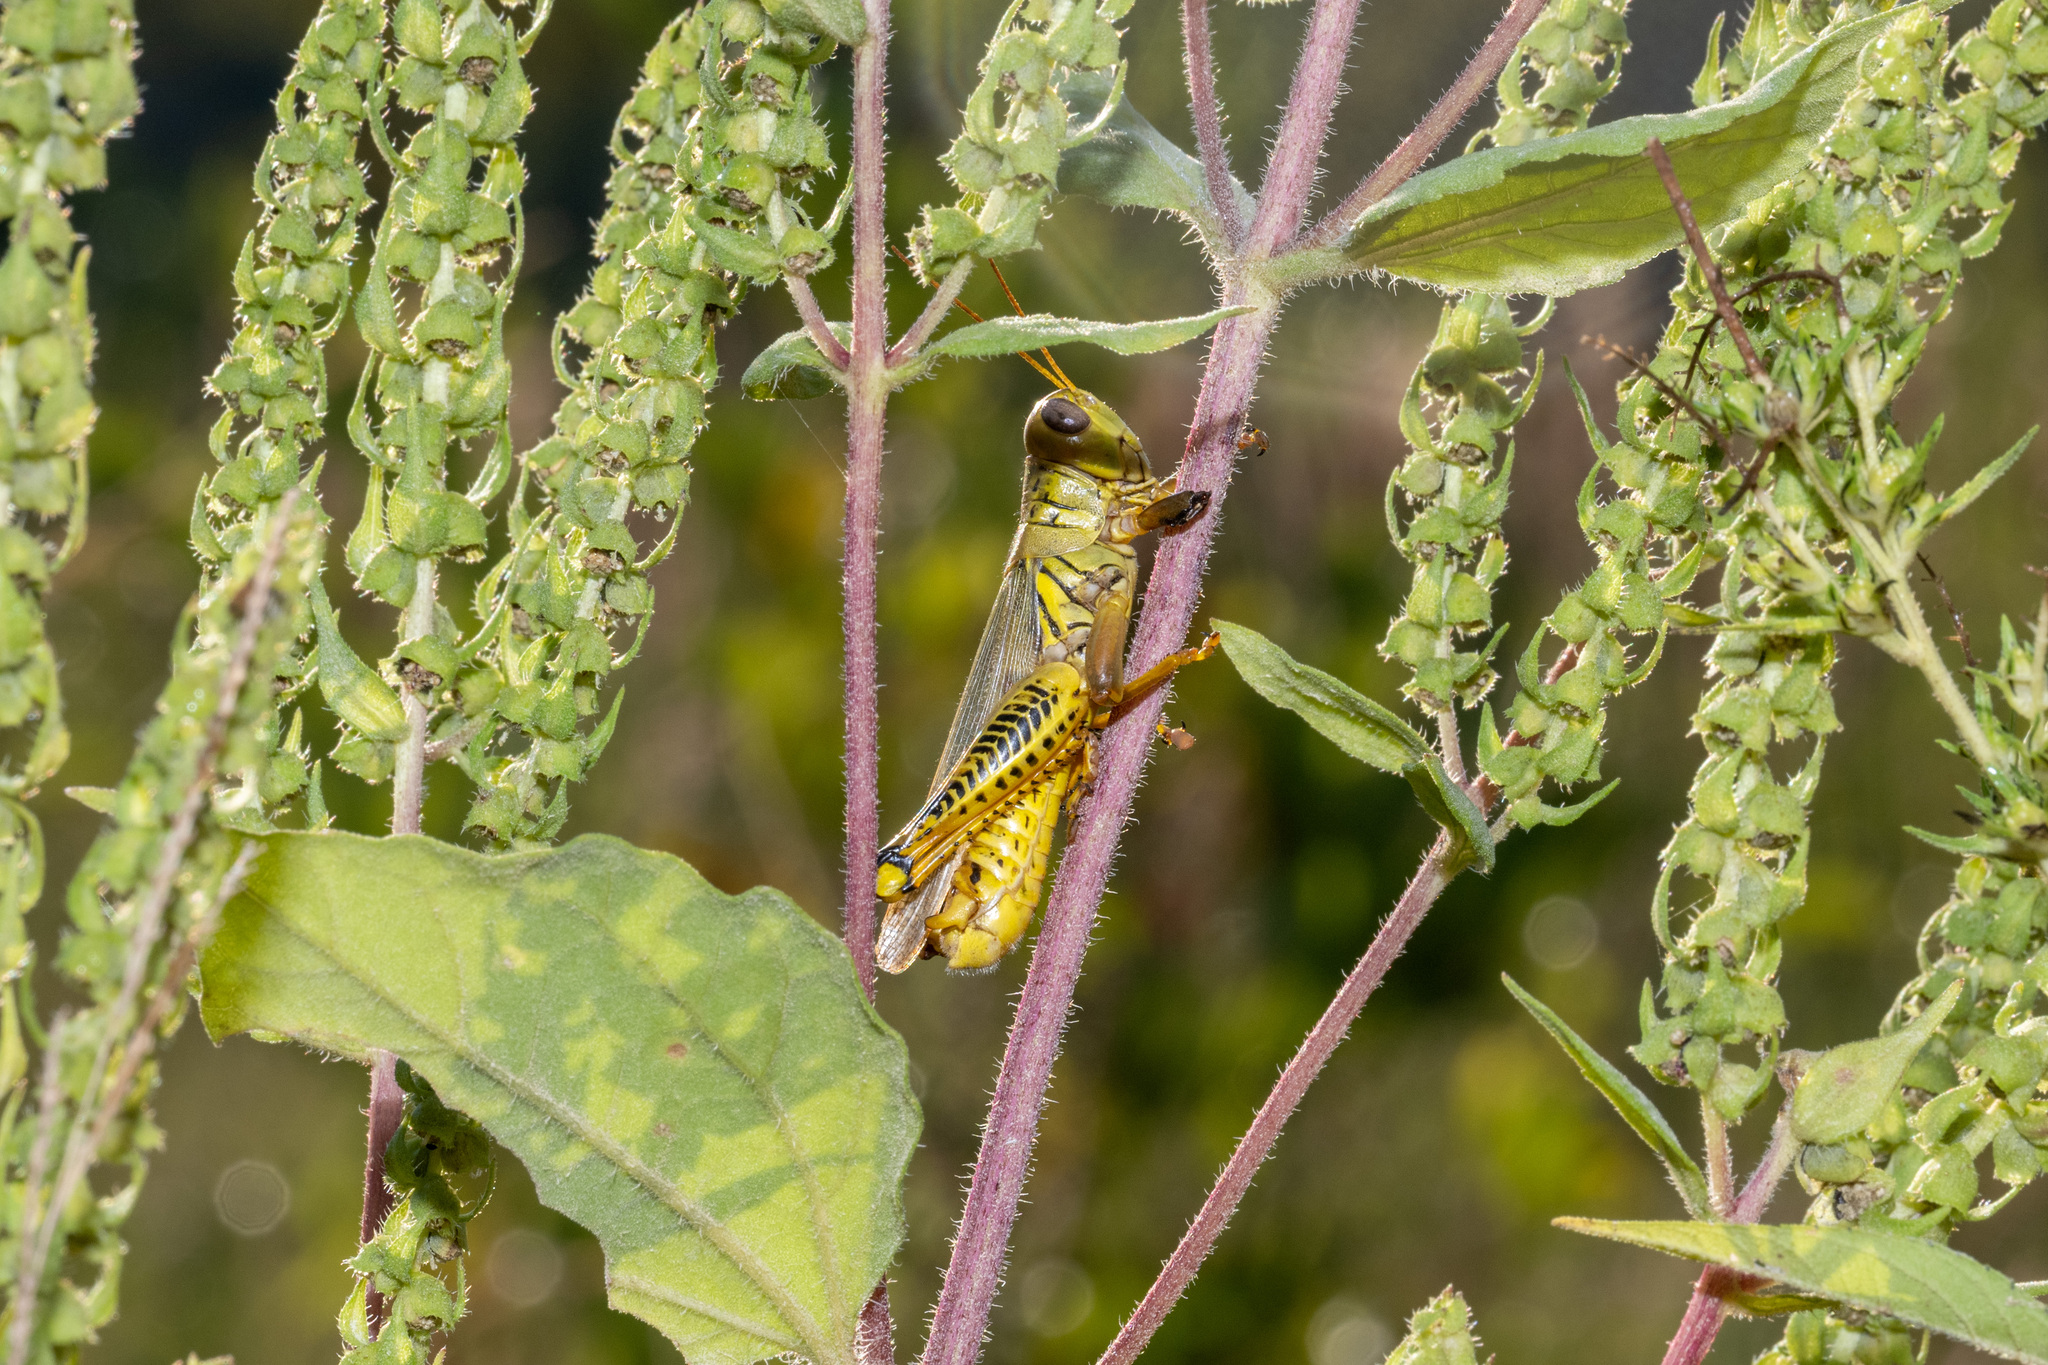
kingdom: Animalia
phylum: Arthropoda
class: Insecta
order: Orthoptera
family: Acrididae
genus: Melanoplus
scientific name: Melanoplus differentialis
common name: Differential grasshopper
